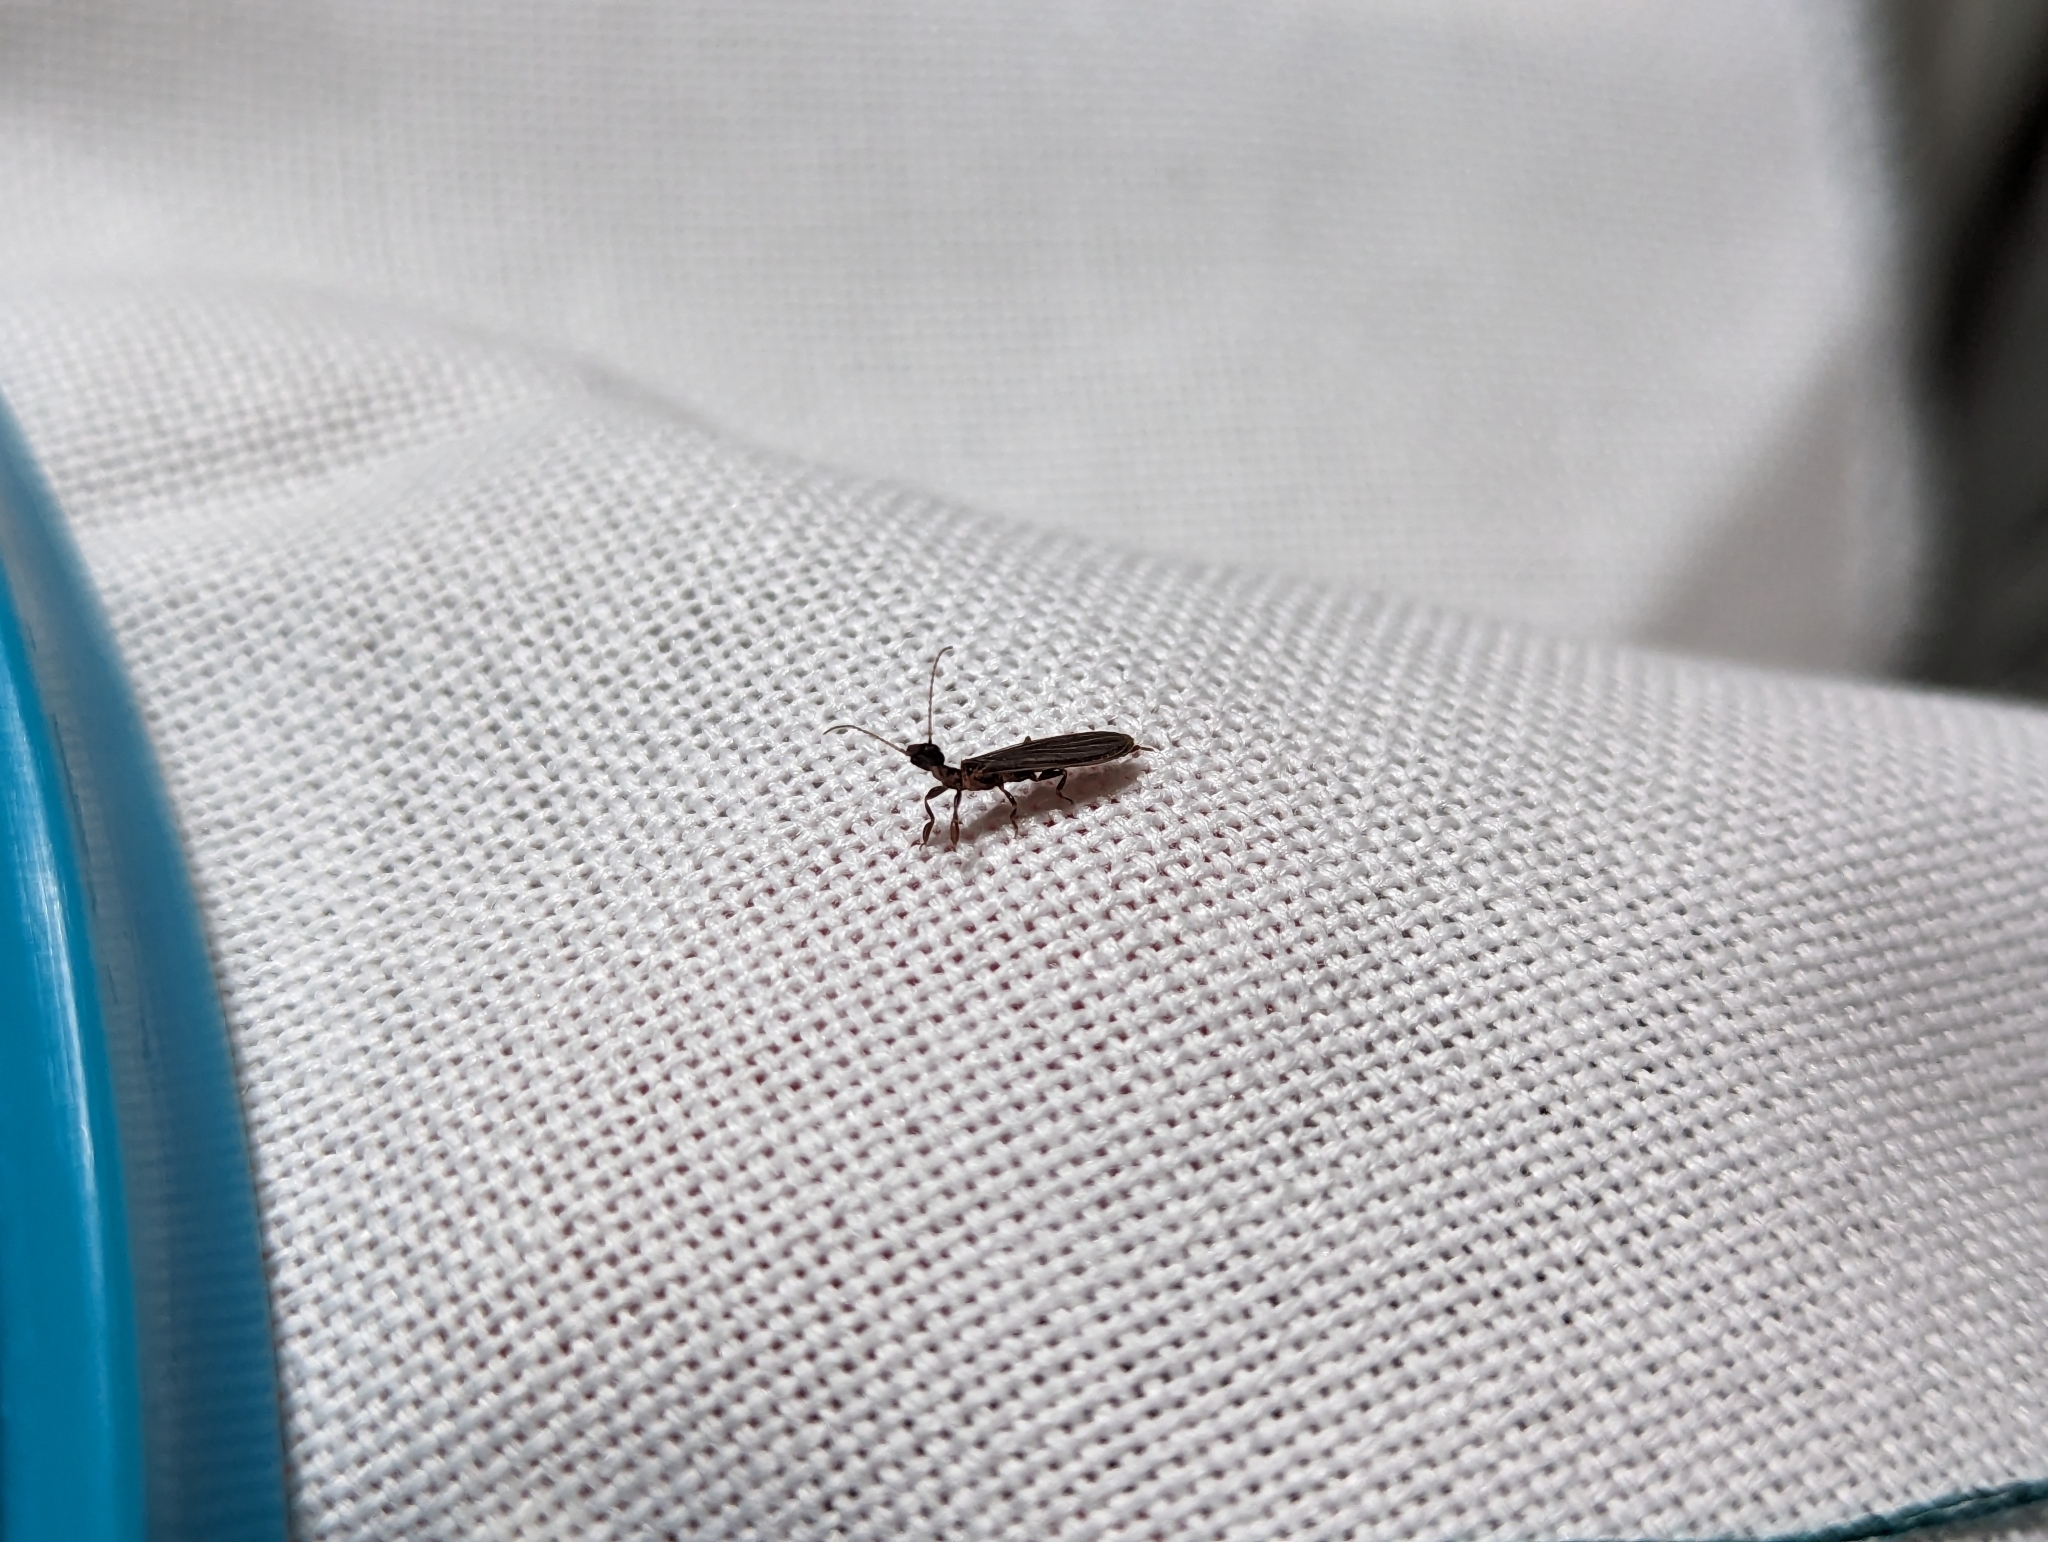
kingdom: Animalia
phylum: Arthropoda
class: Insecta
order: Embioptera
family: Oligotomidae
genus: Oligotoma
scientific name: Oligotoma nigra
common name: Black webspinner
